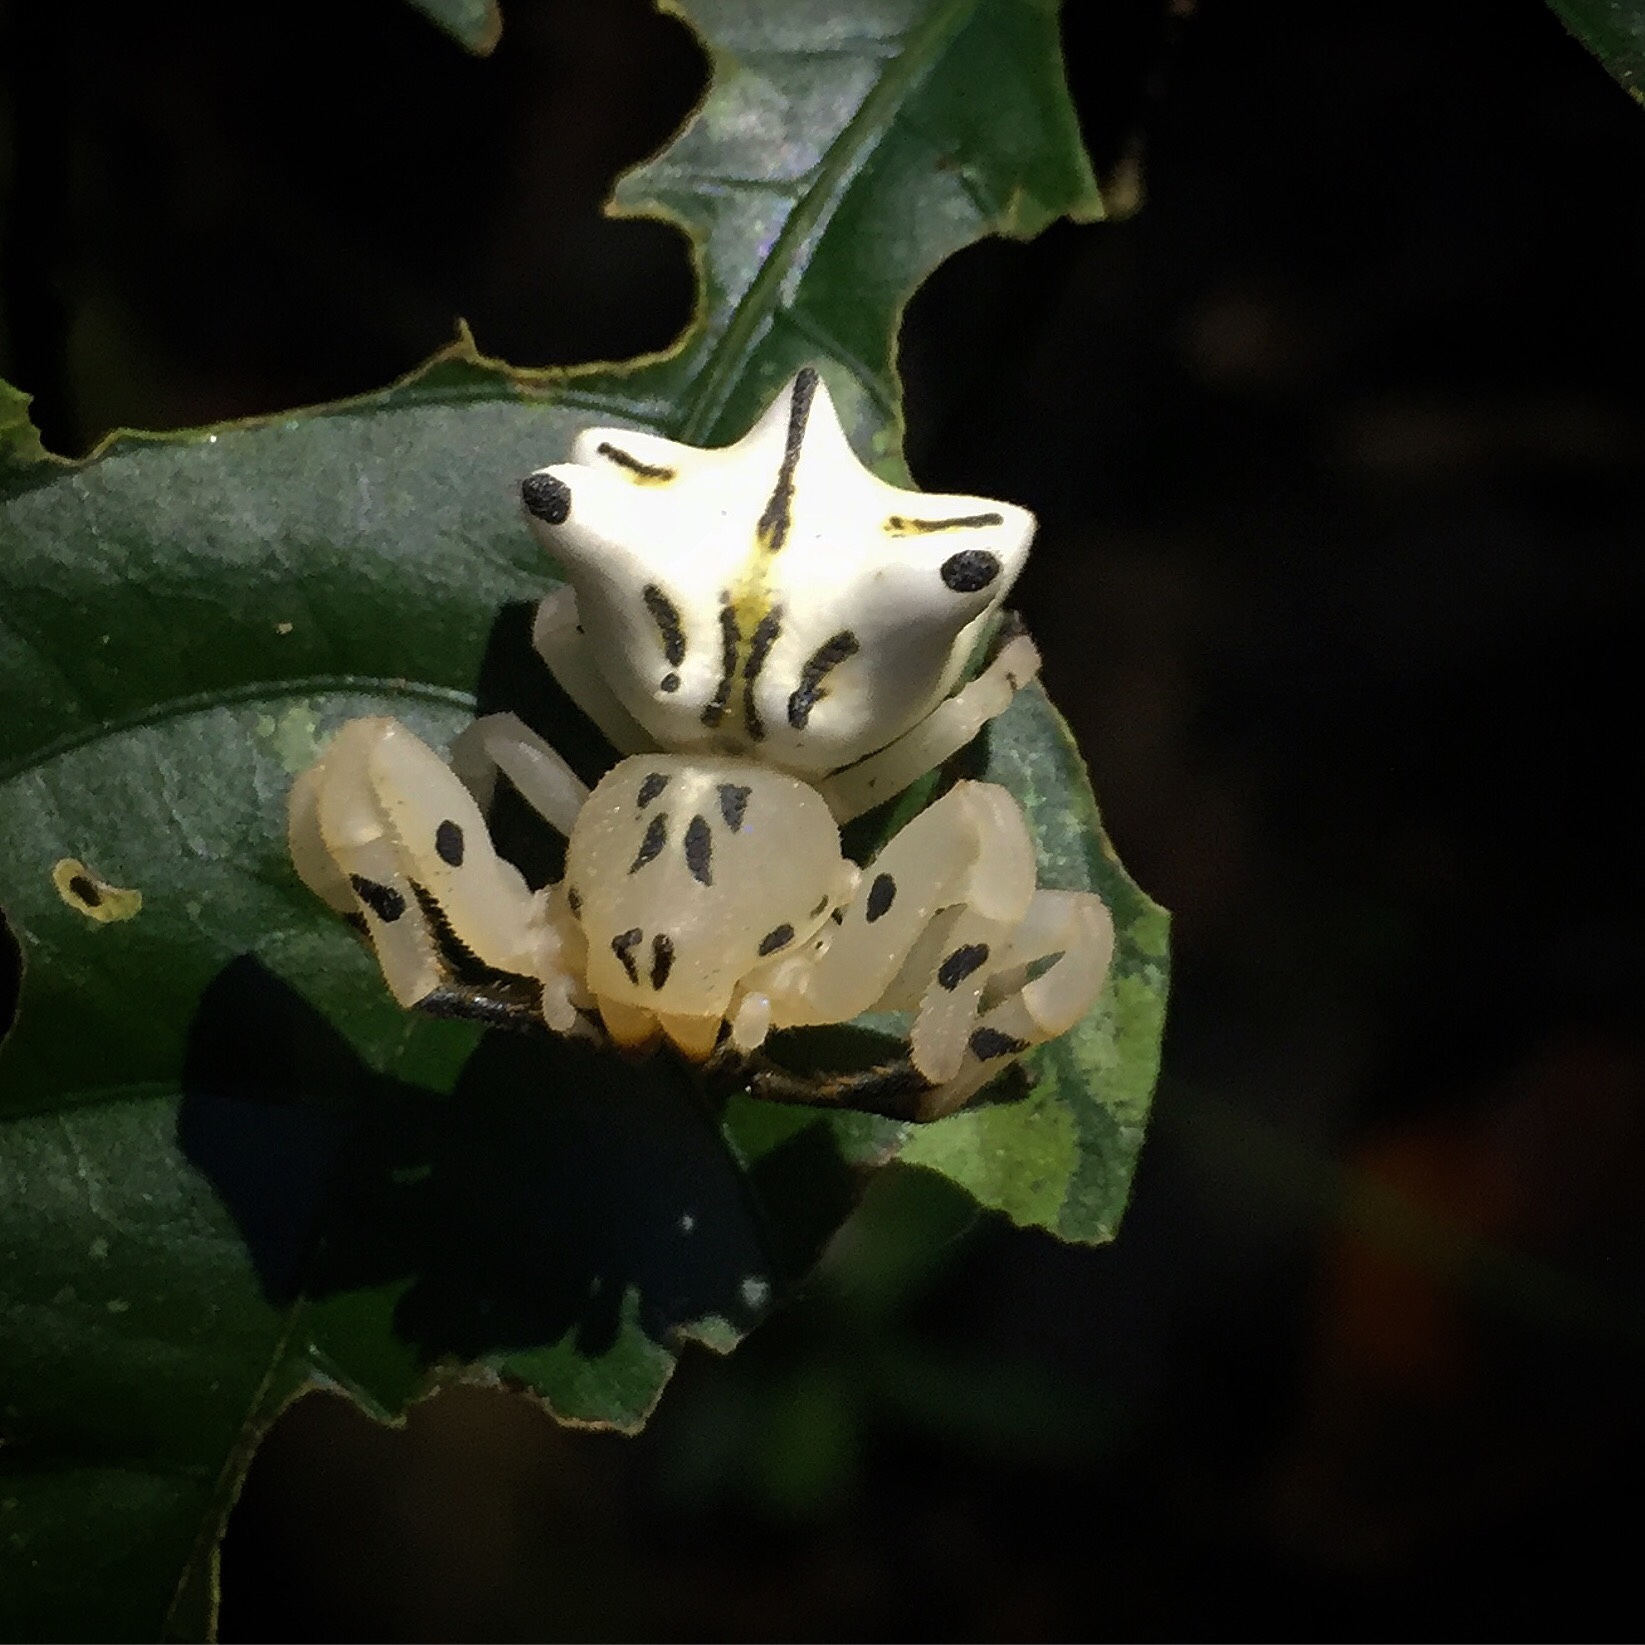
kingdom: Animalia
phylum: Arthropoda
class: Arachnida
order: Araneae
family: Thomisidae
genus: Epicadus
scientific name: Epicadus heterogaster
